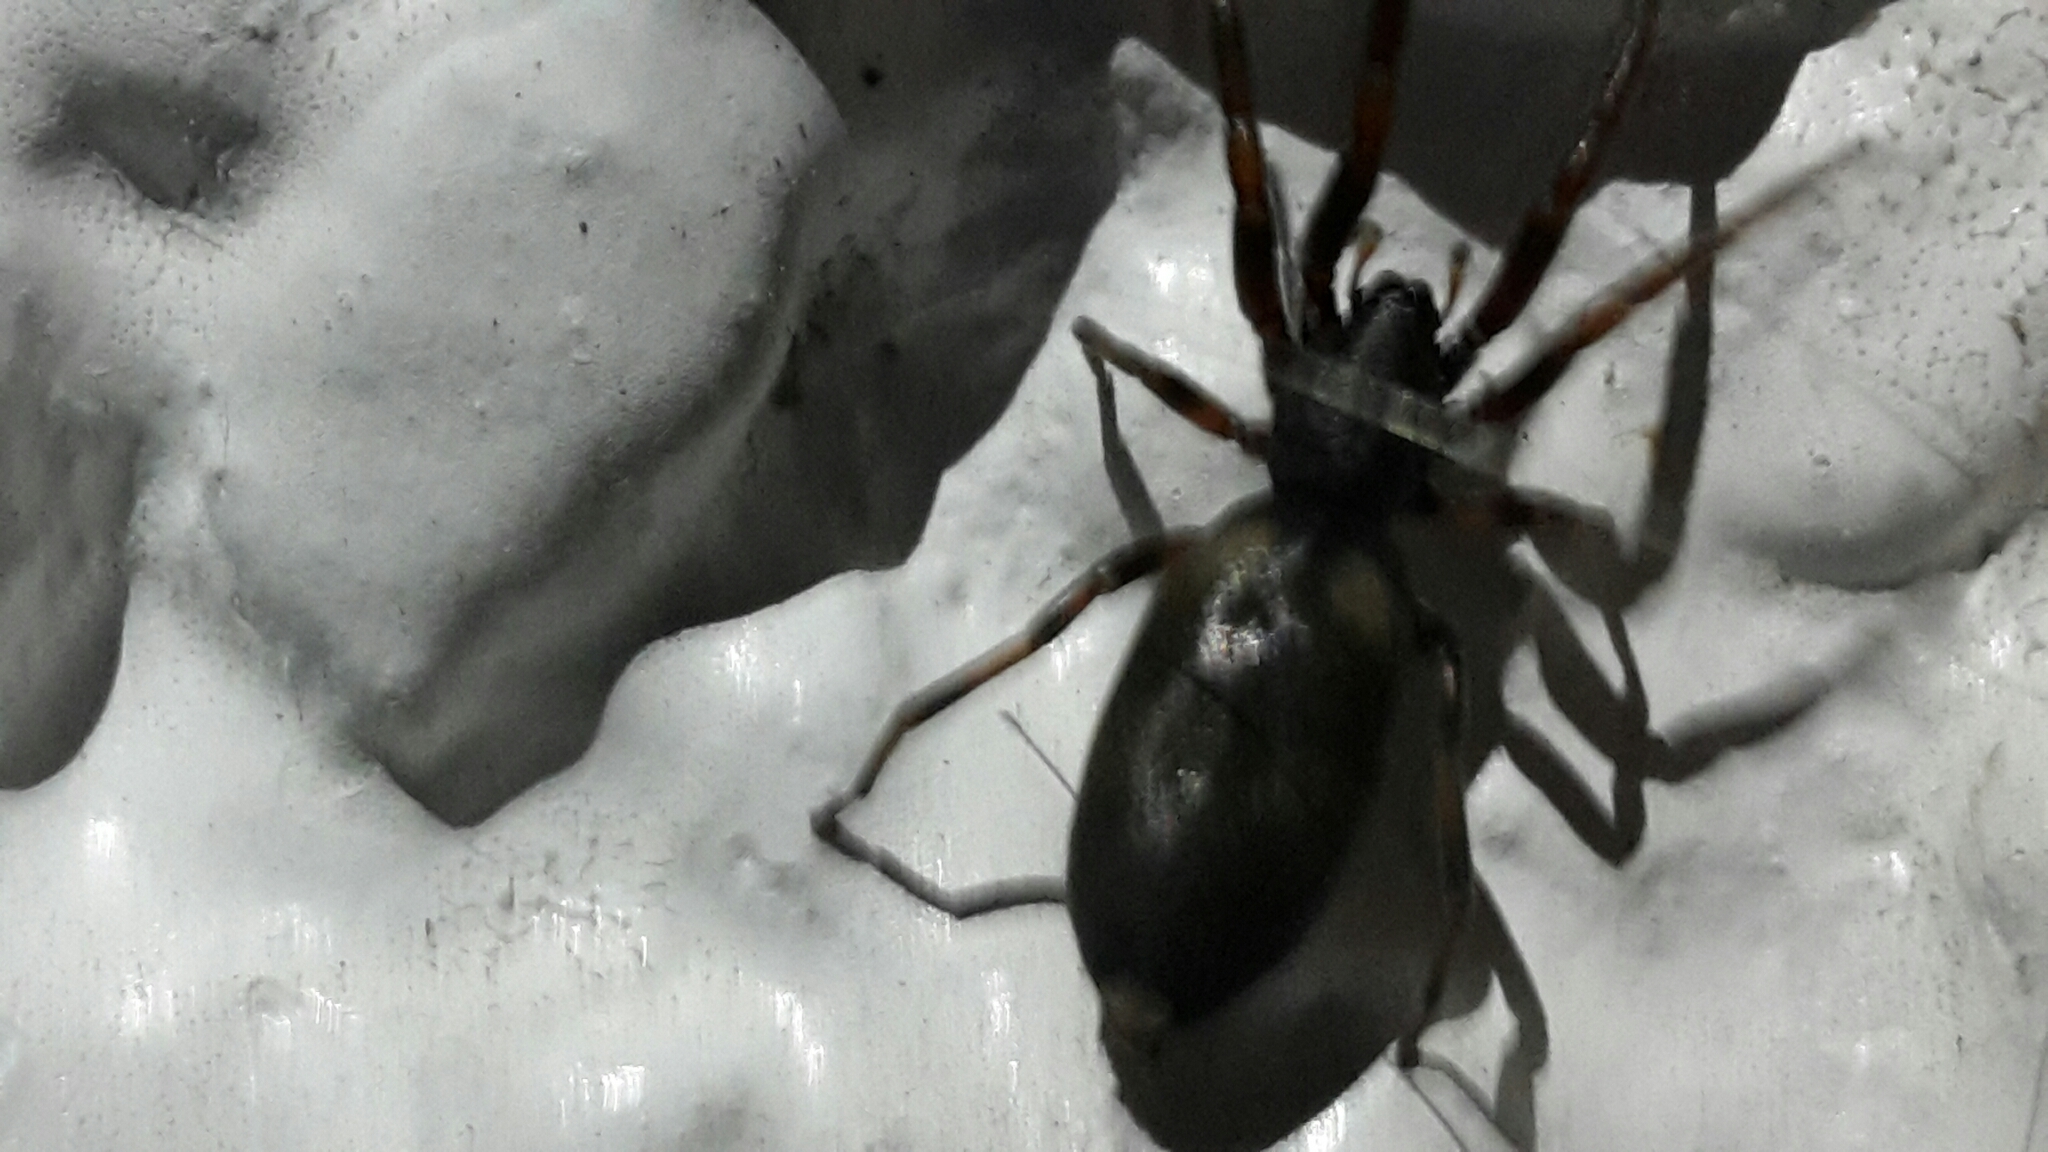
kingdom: Animalia
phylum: Arthropoda
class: Arachnida
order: Araneae
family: Lamponidae
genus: Lampona
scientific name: Lampona murina
